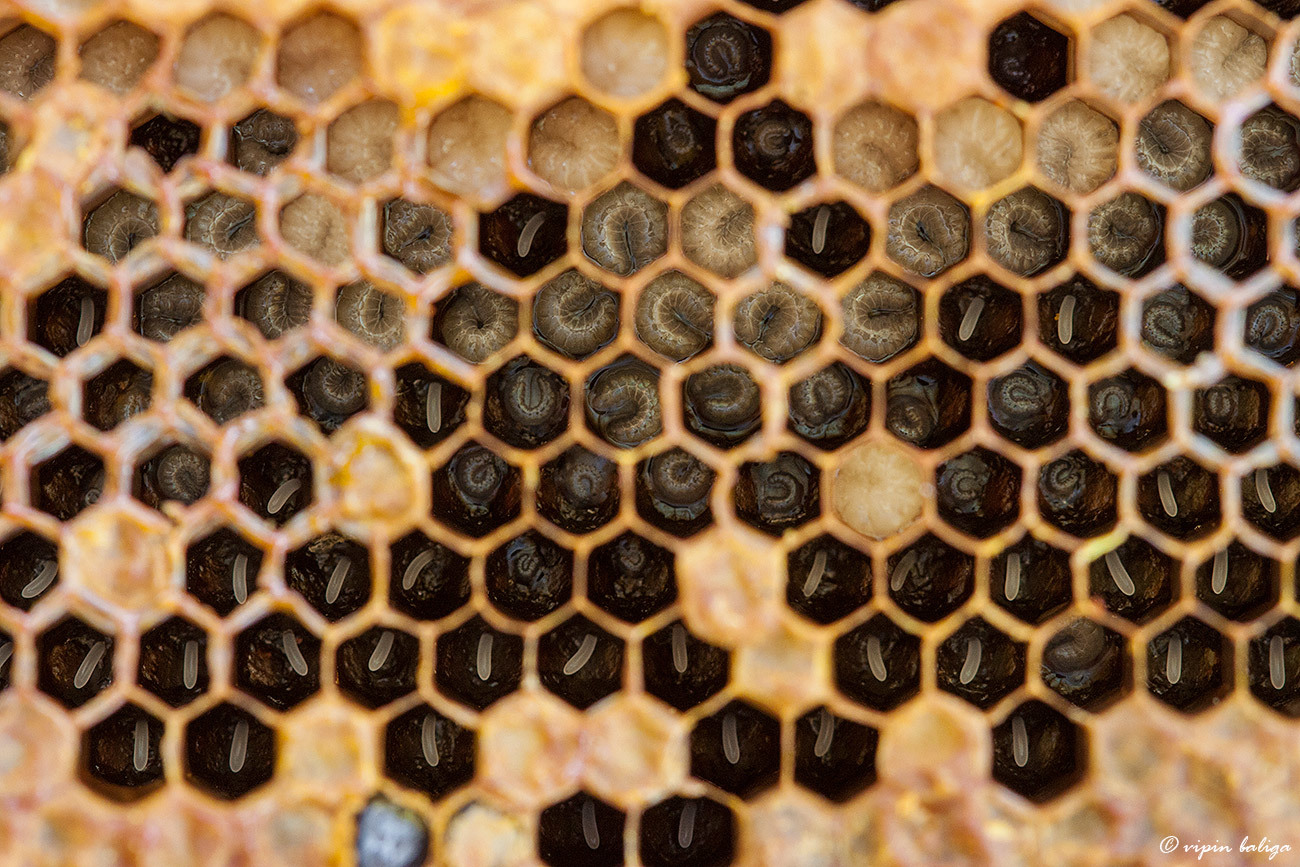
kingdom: Animalia
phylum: Arthropoda
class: Insecta
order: Hymenoptera
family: Apidae
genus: Apis
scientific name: Apis
